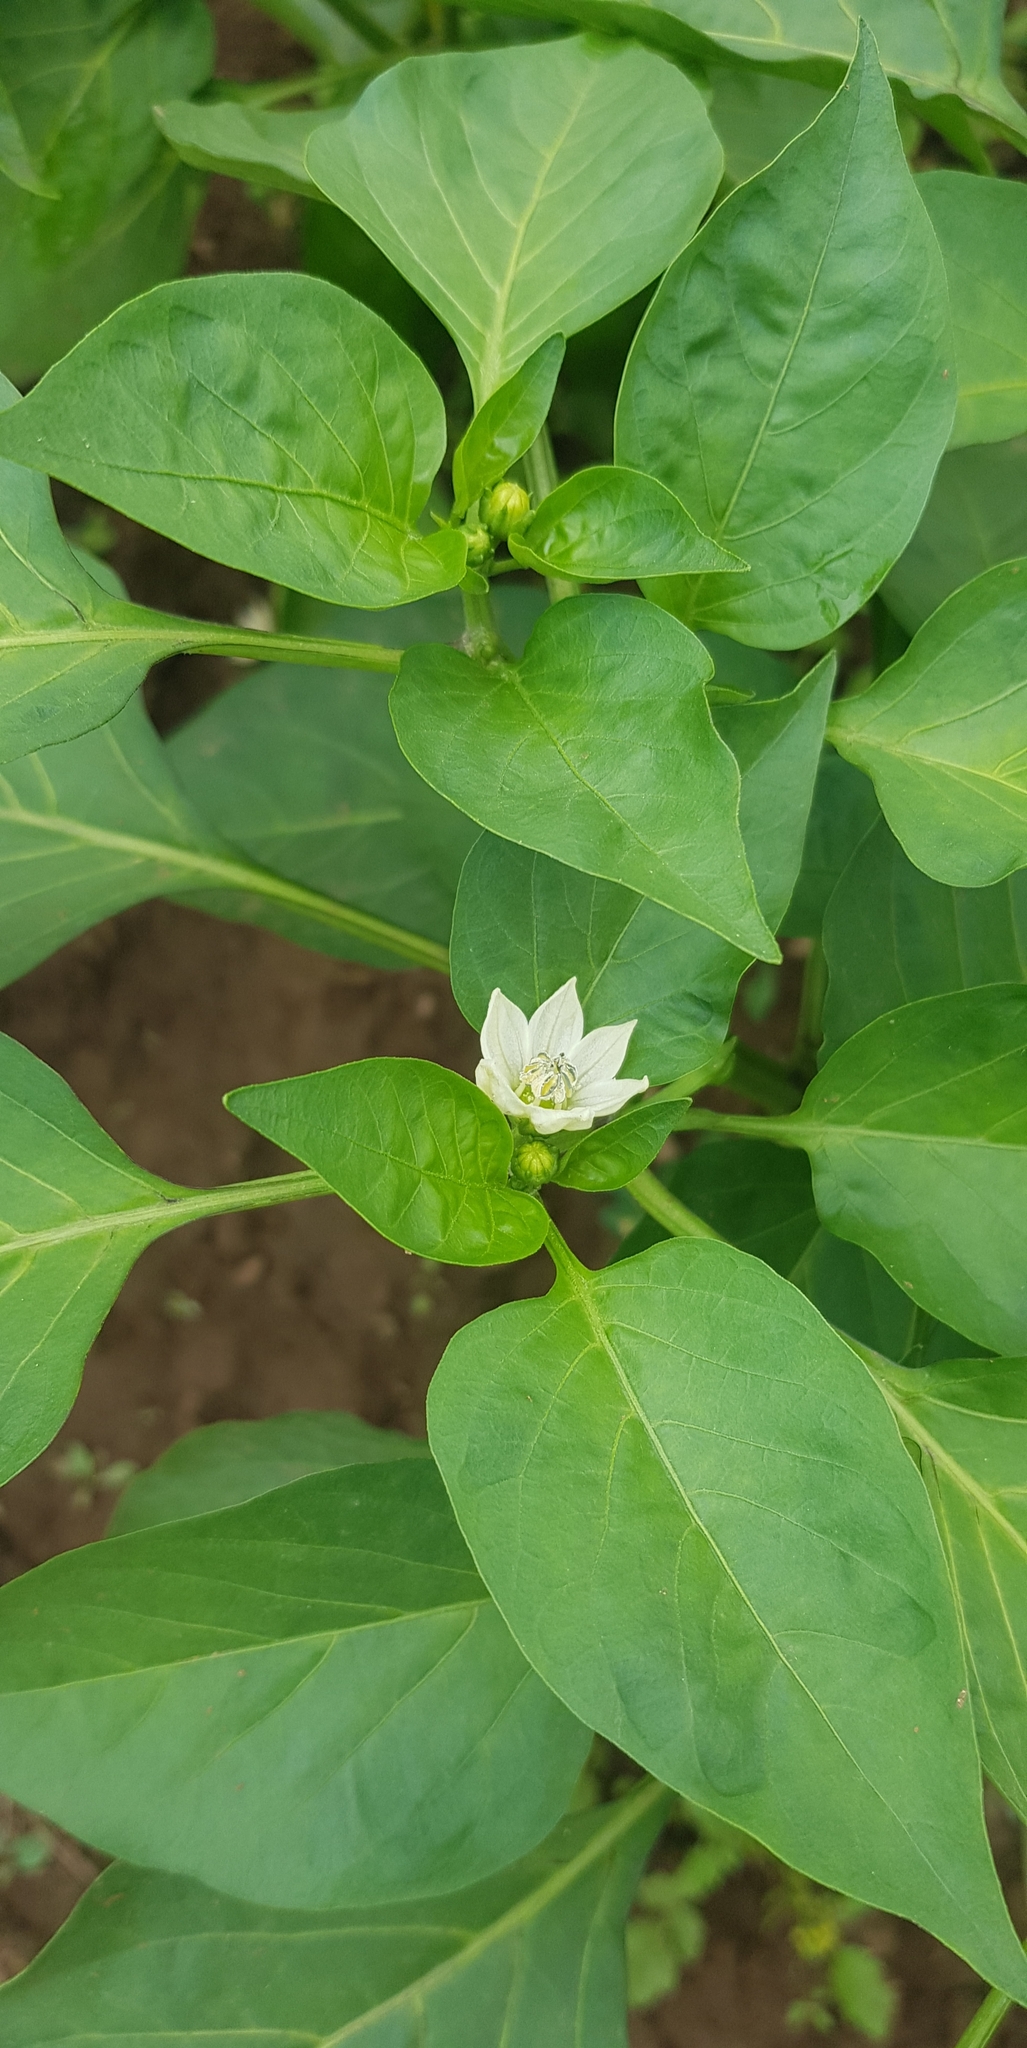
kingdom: Plantae
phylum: Tracheophyta
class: Magnoliopsida
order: Solanales
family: Solanaceae
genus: Capsicum
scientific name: Capsicum annuum
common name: Sweet pepper
